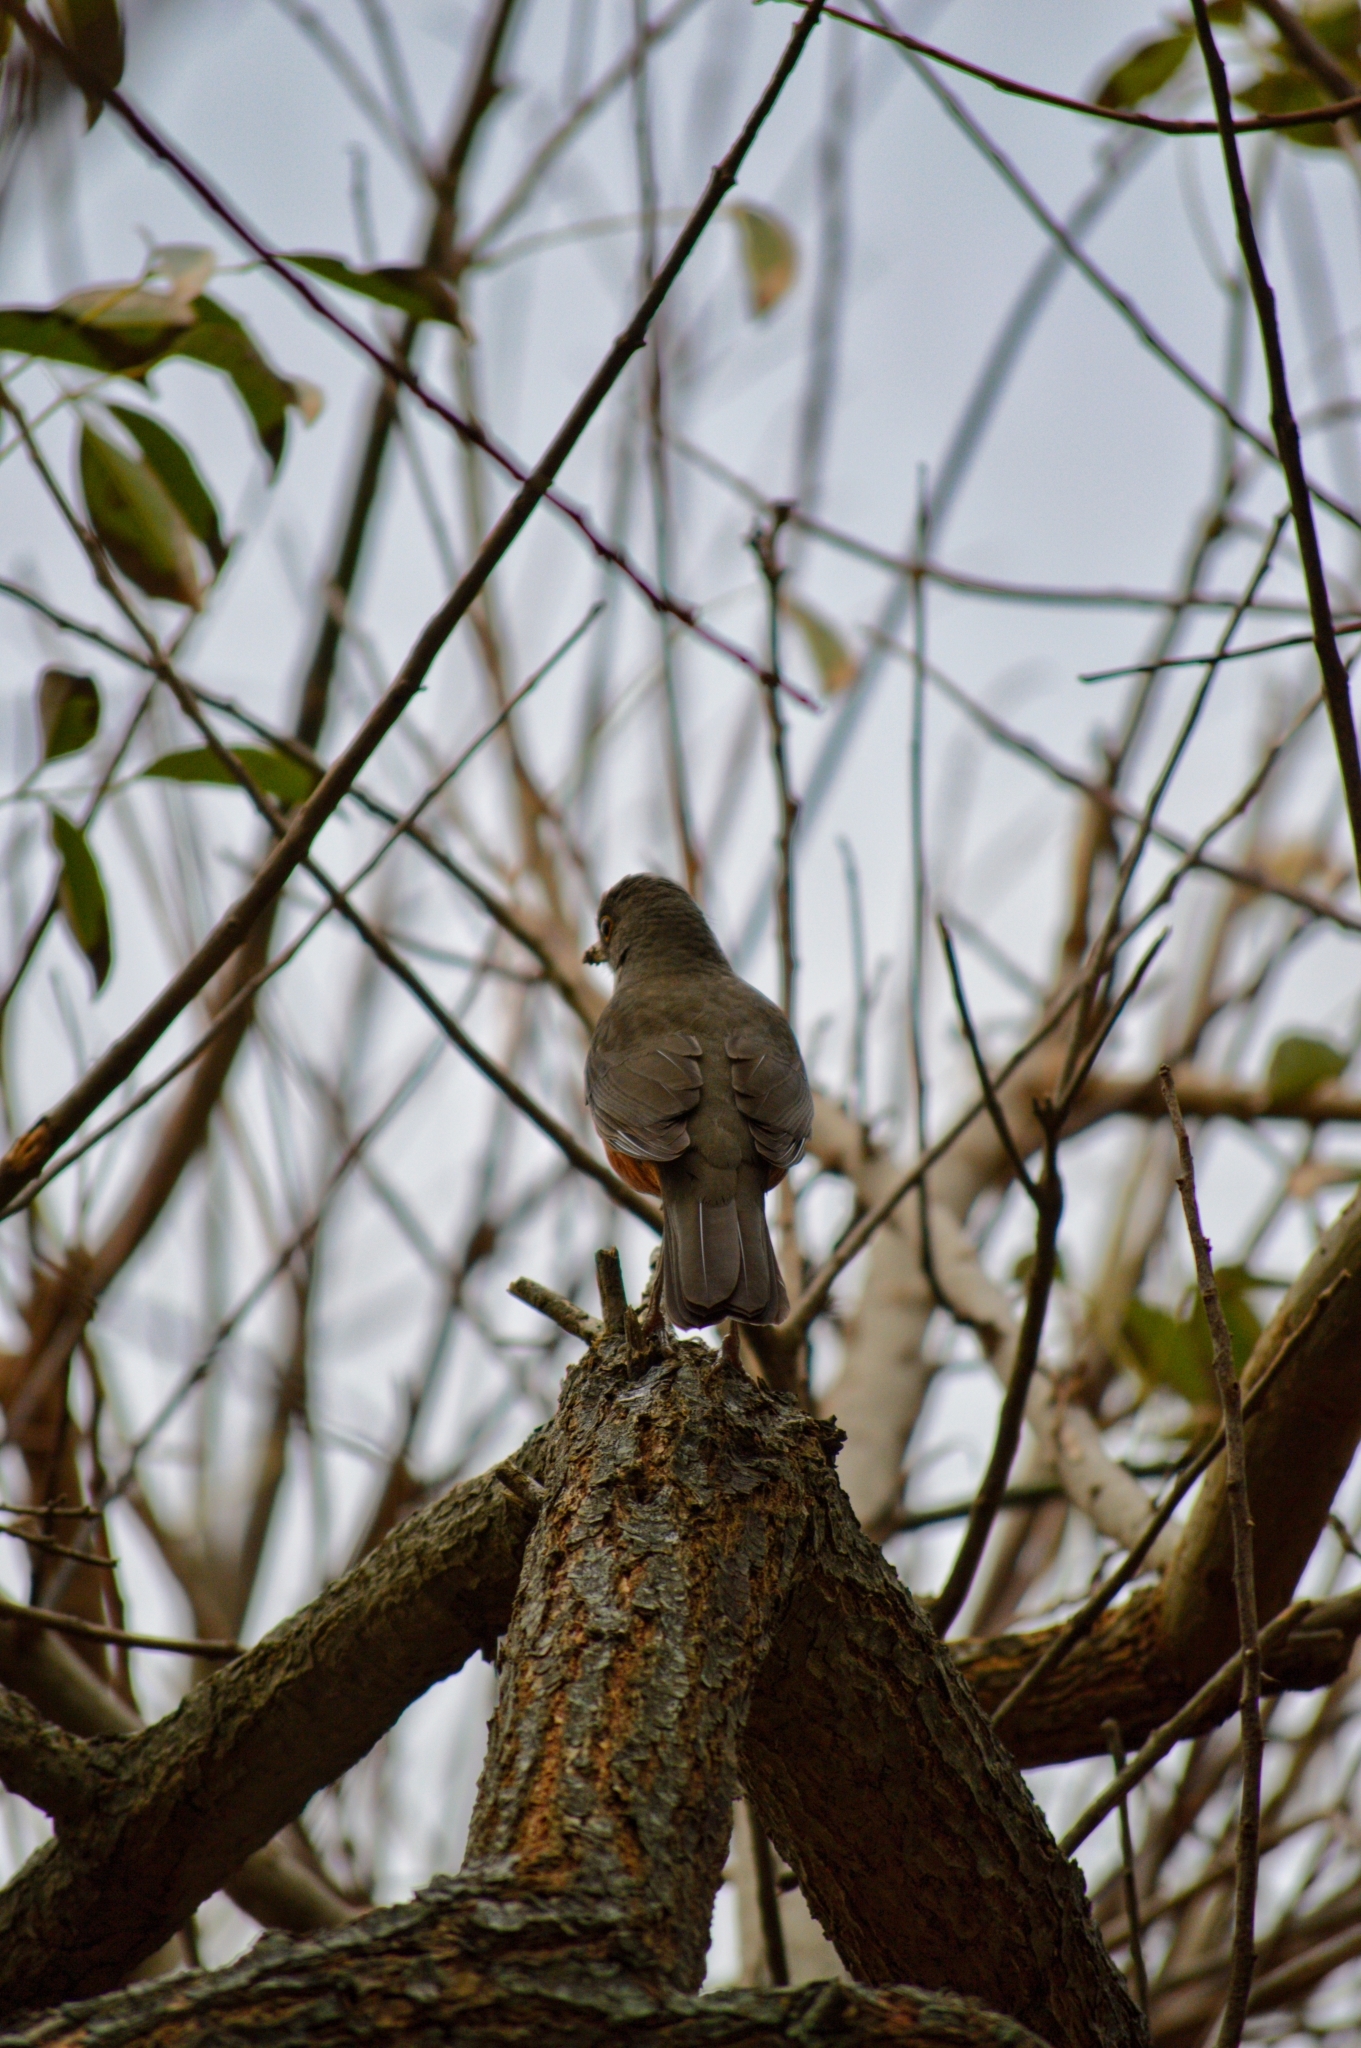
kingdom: Animalia
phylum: Chordata
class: Aves
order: Passeriformes
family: Turdidae
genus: Turdus
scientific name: Turdus rufiventris
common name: Rufous-bellied thrush
